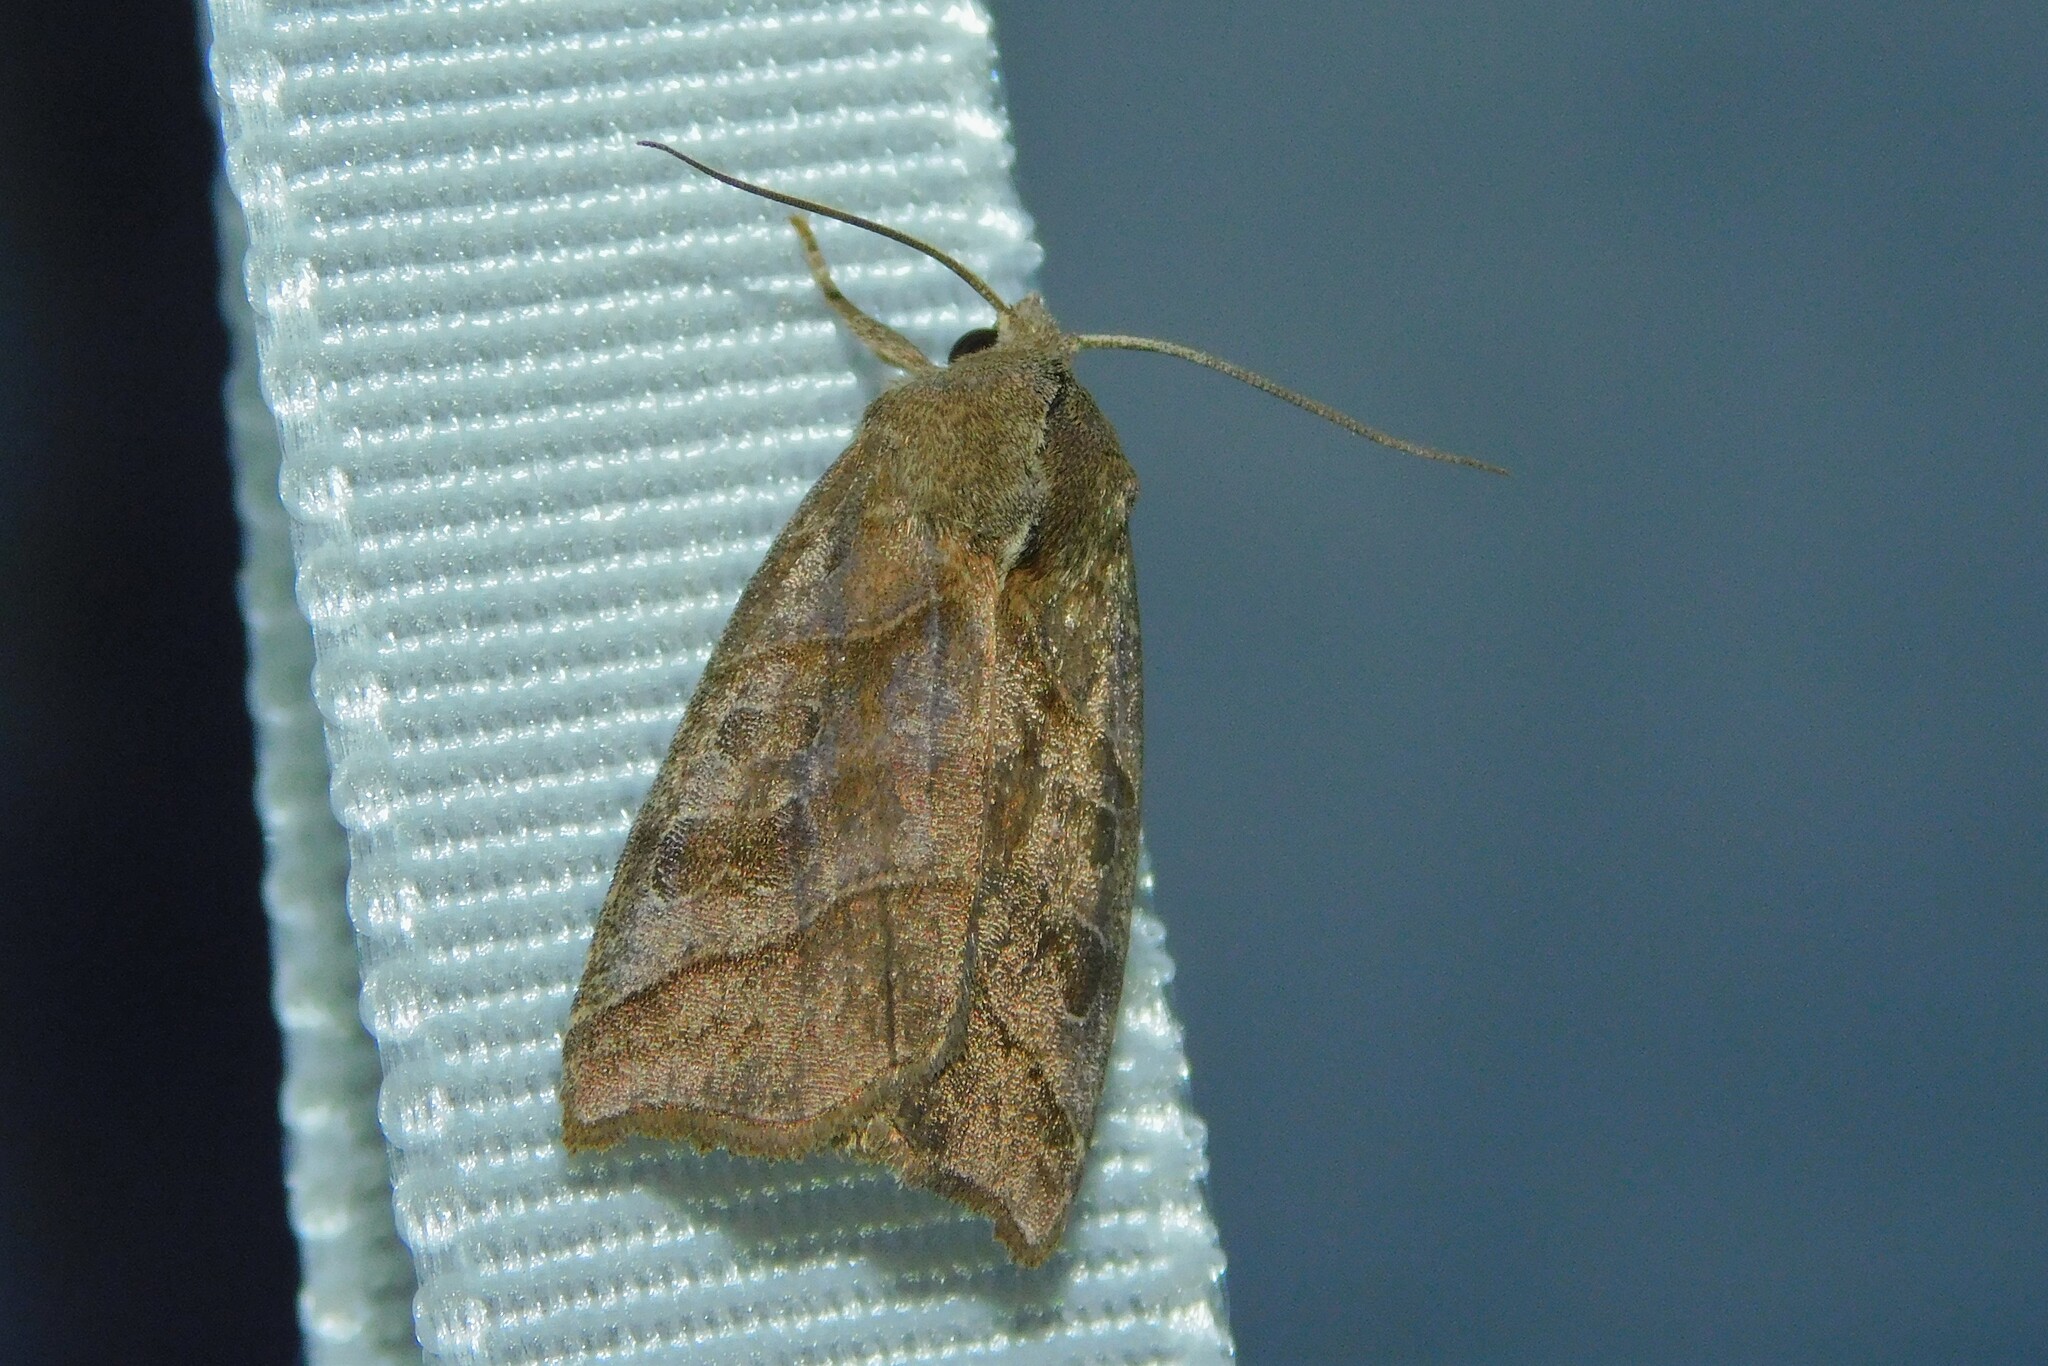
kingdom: Animalia
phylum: Arthropoda
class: Insecta
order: Lepidoptera
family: Noctuidae
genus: Ipimorpha
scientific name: Ipimorpha retusa
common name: Double kidney
